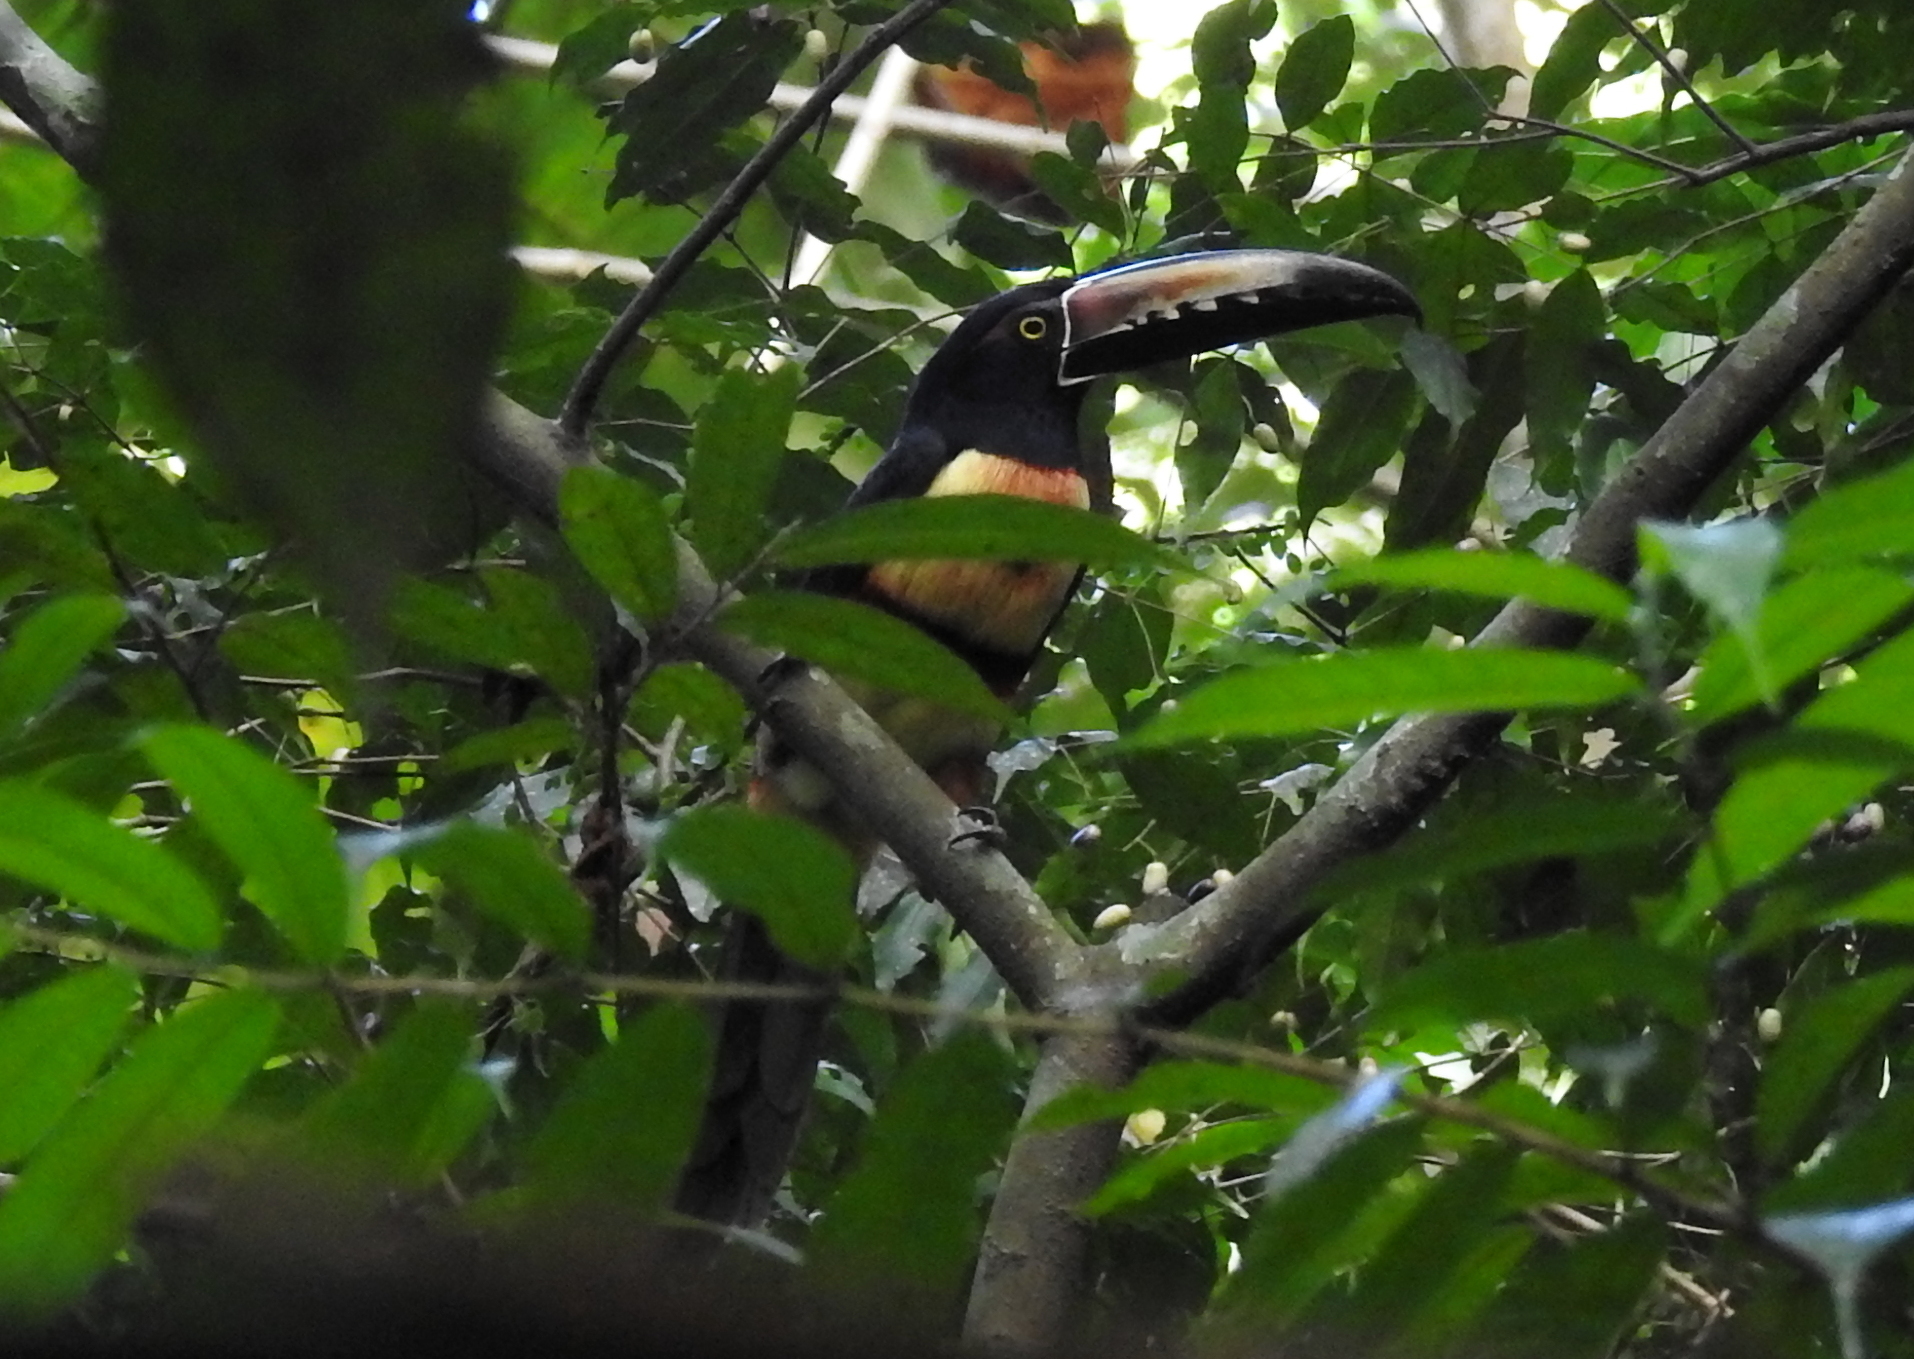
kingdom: Animalia
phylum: Chordata
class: Aves
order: Piciformes
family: Ramphastidae
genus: Pteroglossus
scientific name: Pteroglossus torquatus
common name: Collared aracari
